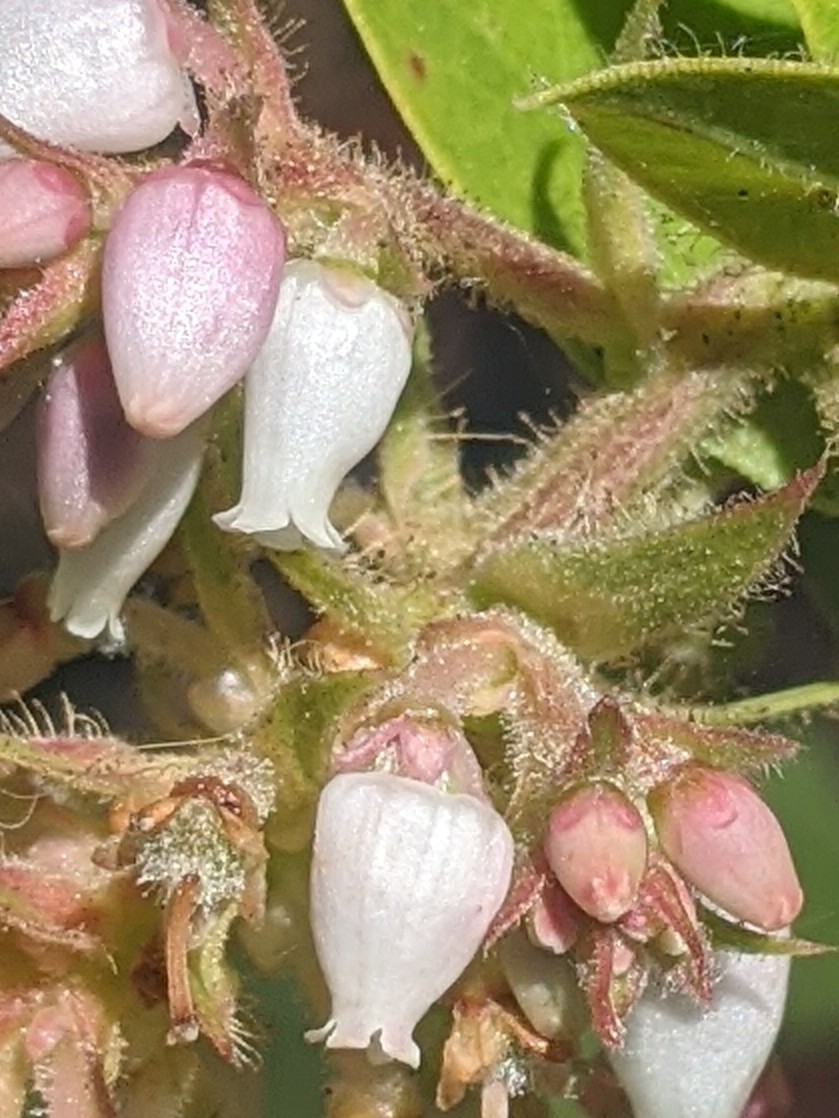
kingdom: Plantae
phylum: Tracheophyta
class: Magnoliopsida
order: Ericales
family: Ericaceae
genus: Arctostaphylos
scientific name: Arctostaphylos montaraensis
